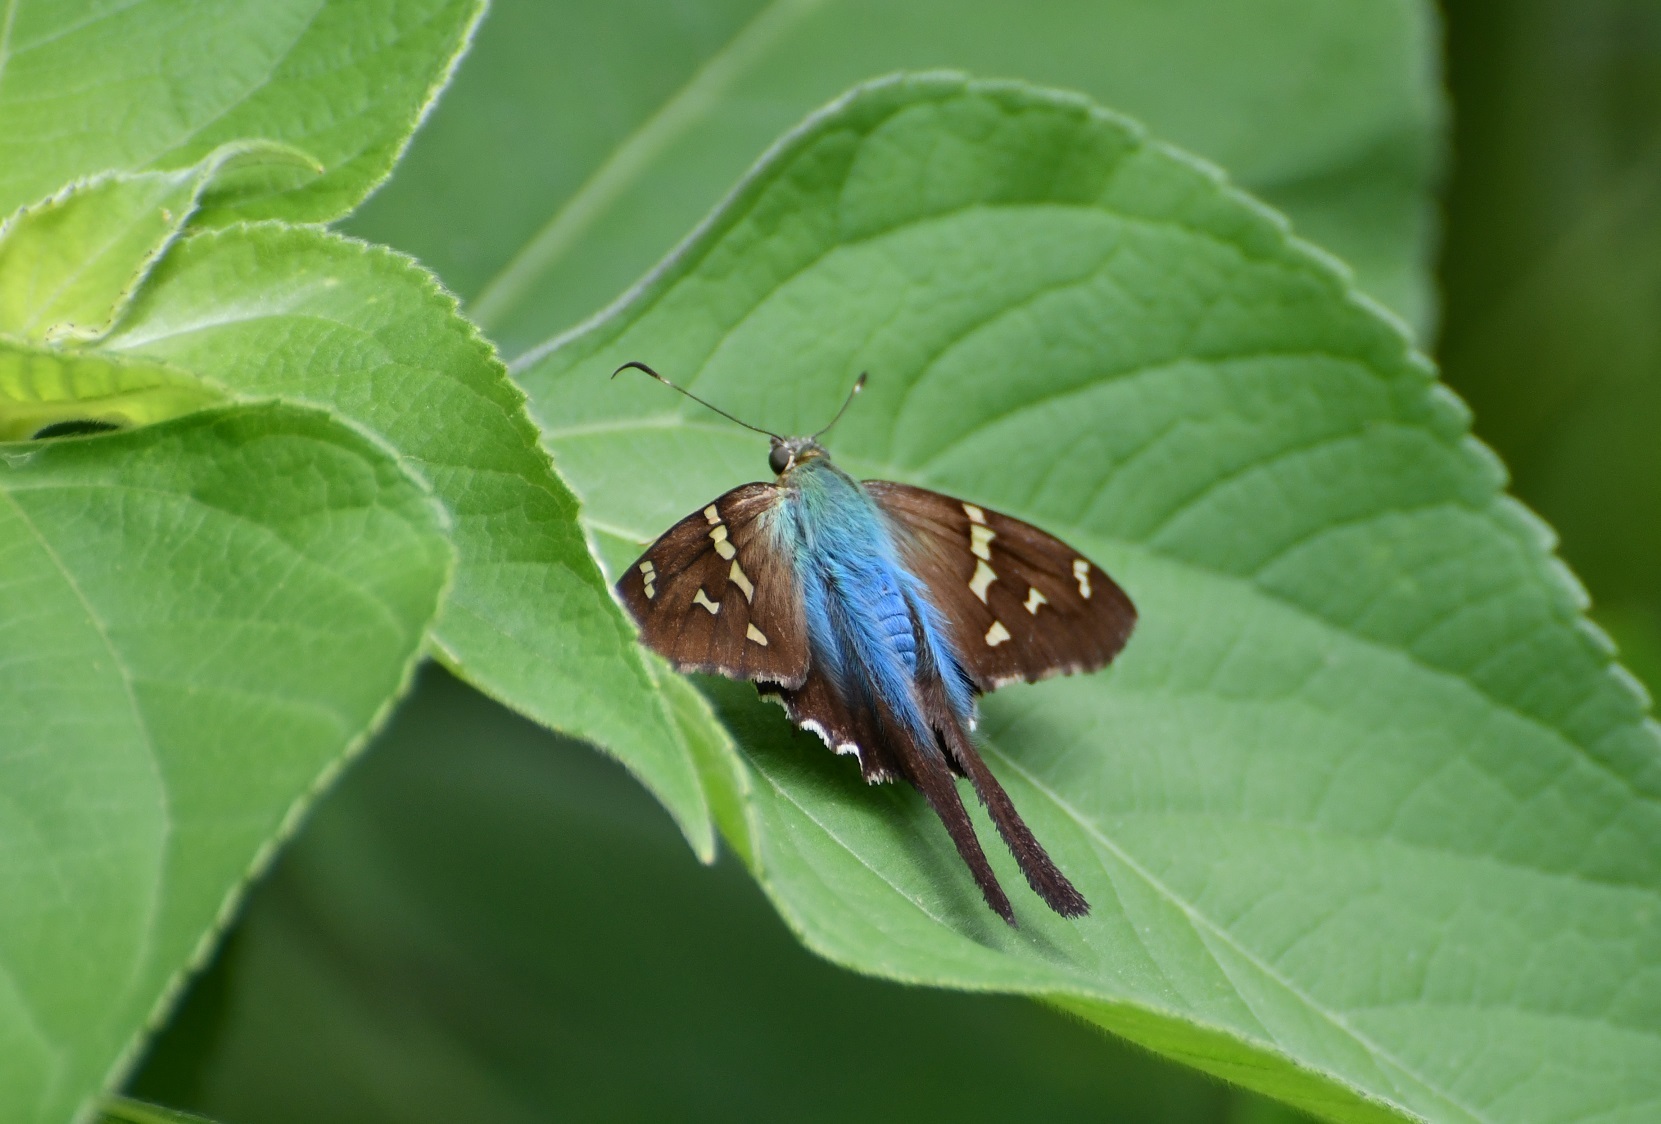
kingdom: Animalia
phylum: Arthropoda
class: Insecta
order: Lepidoptera
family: Hesperiidae
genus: Urbanus
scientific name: Urbanus viterboana
